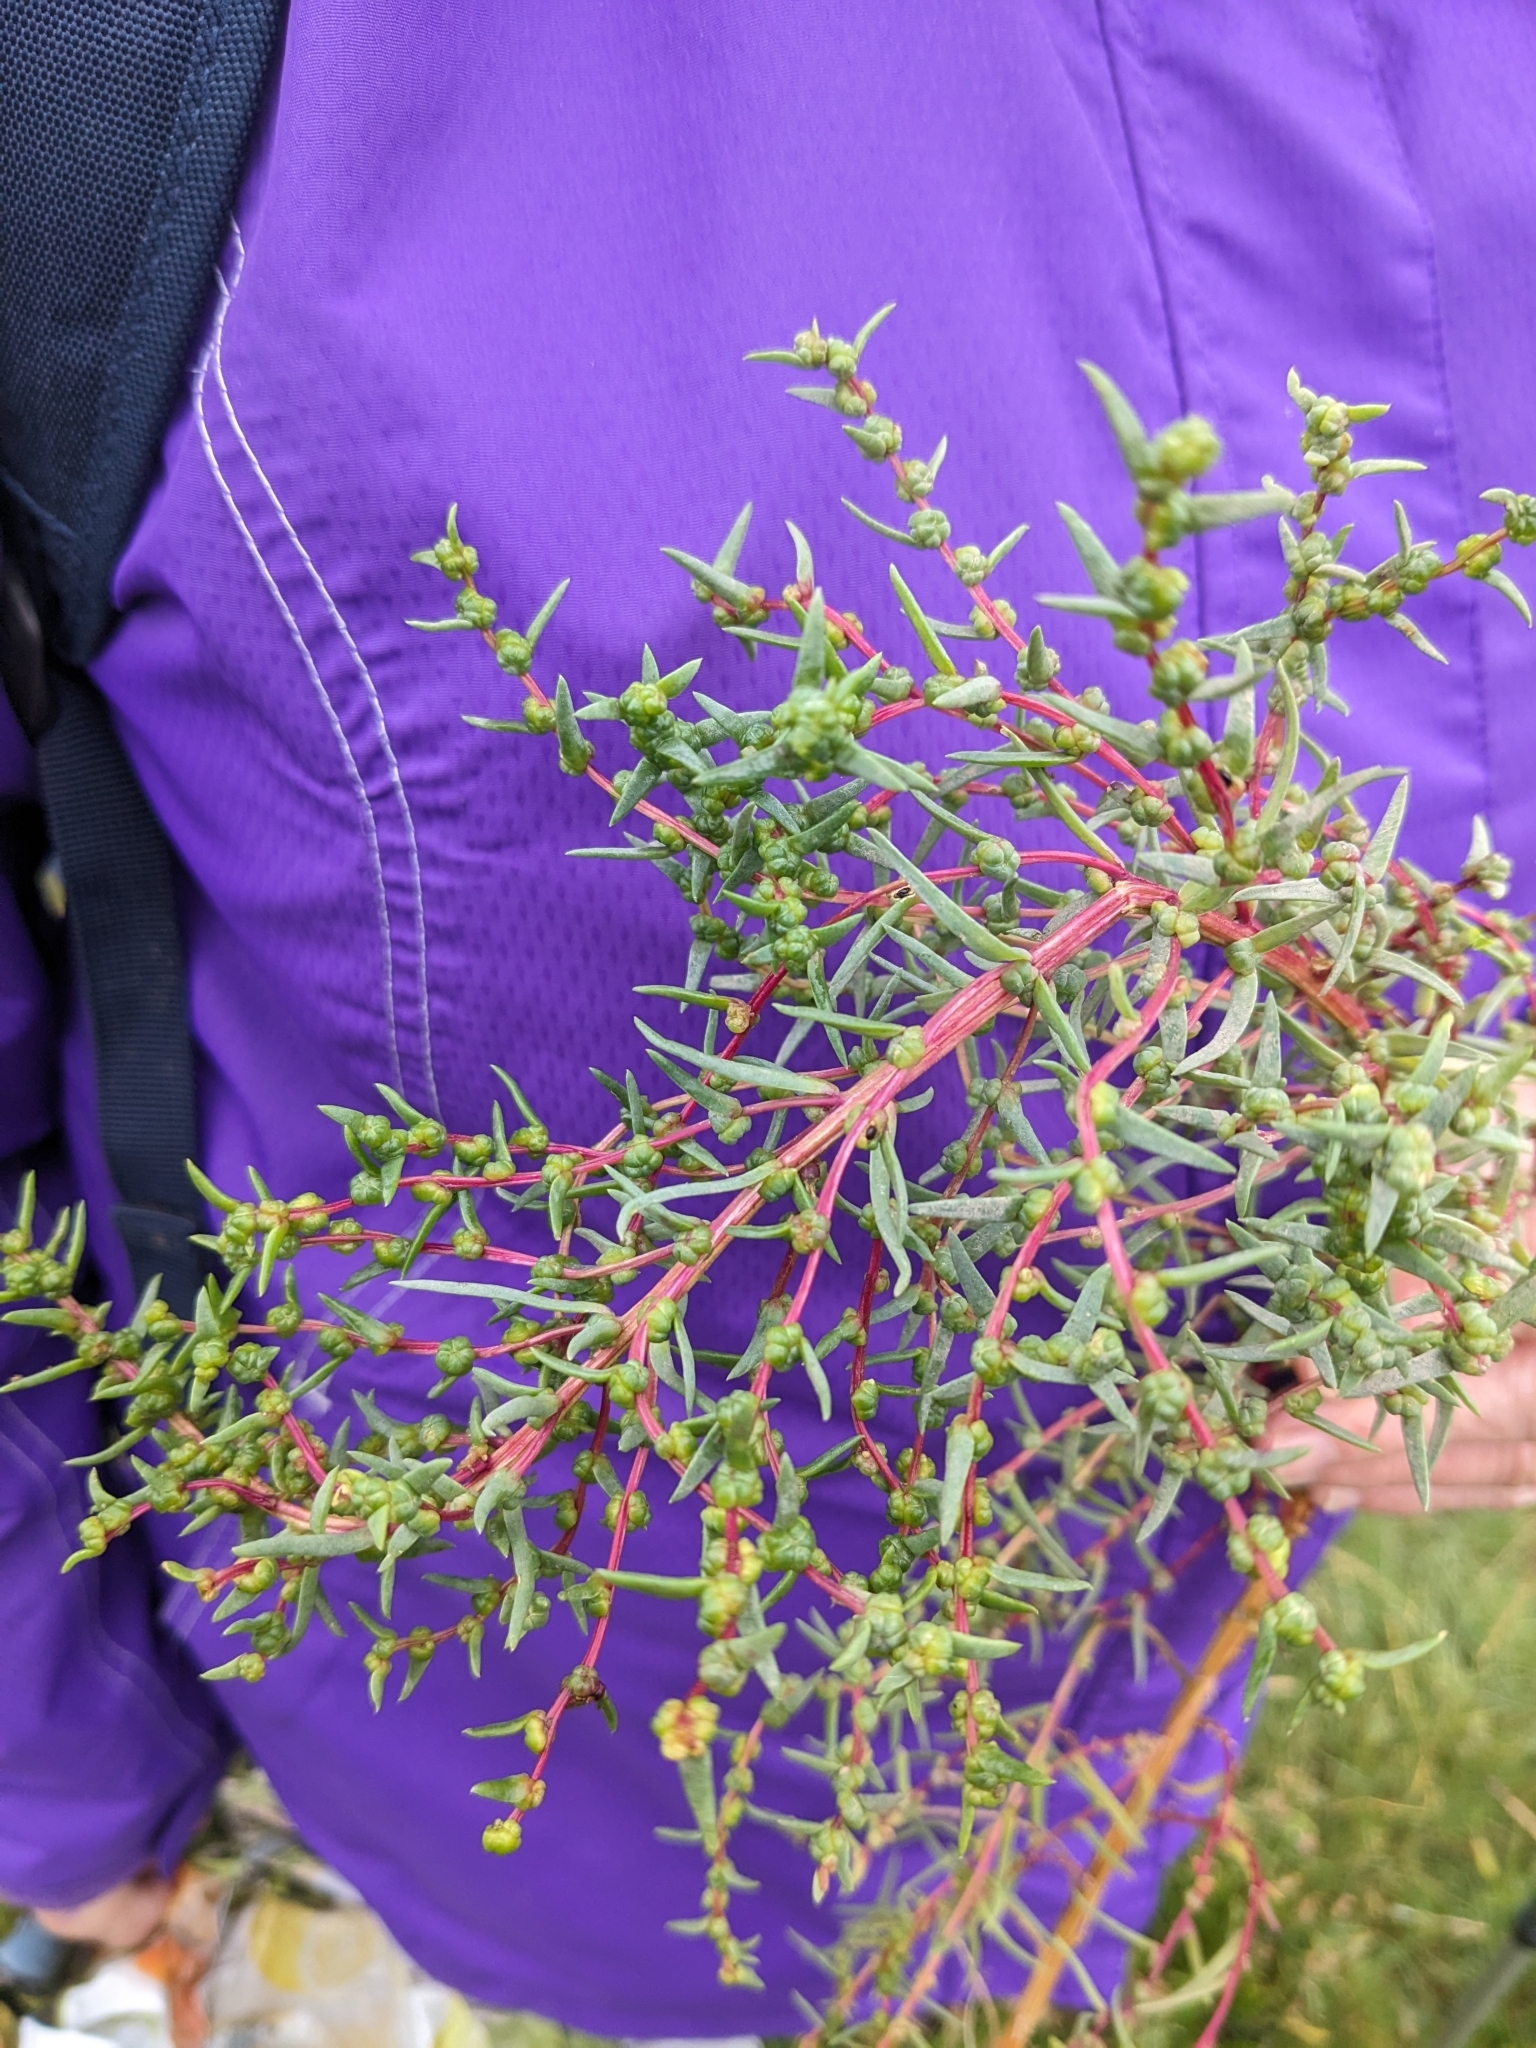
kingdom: Plantae
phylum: Tracheophyta
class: Magnoliopsida
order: Caryophyllales
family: Amaranthaceae
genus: Suaeda
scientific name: Suaeda maritima
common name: Annual sea-blite
